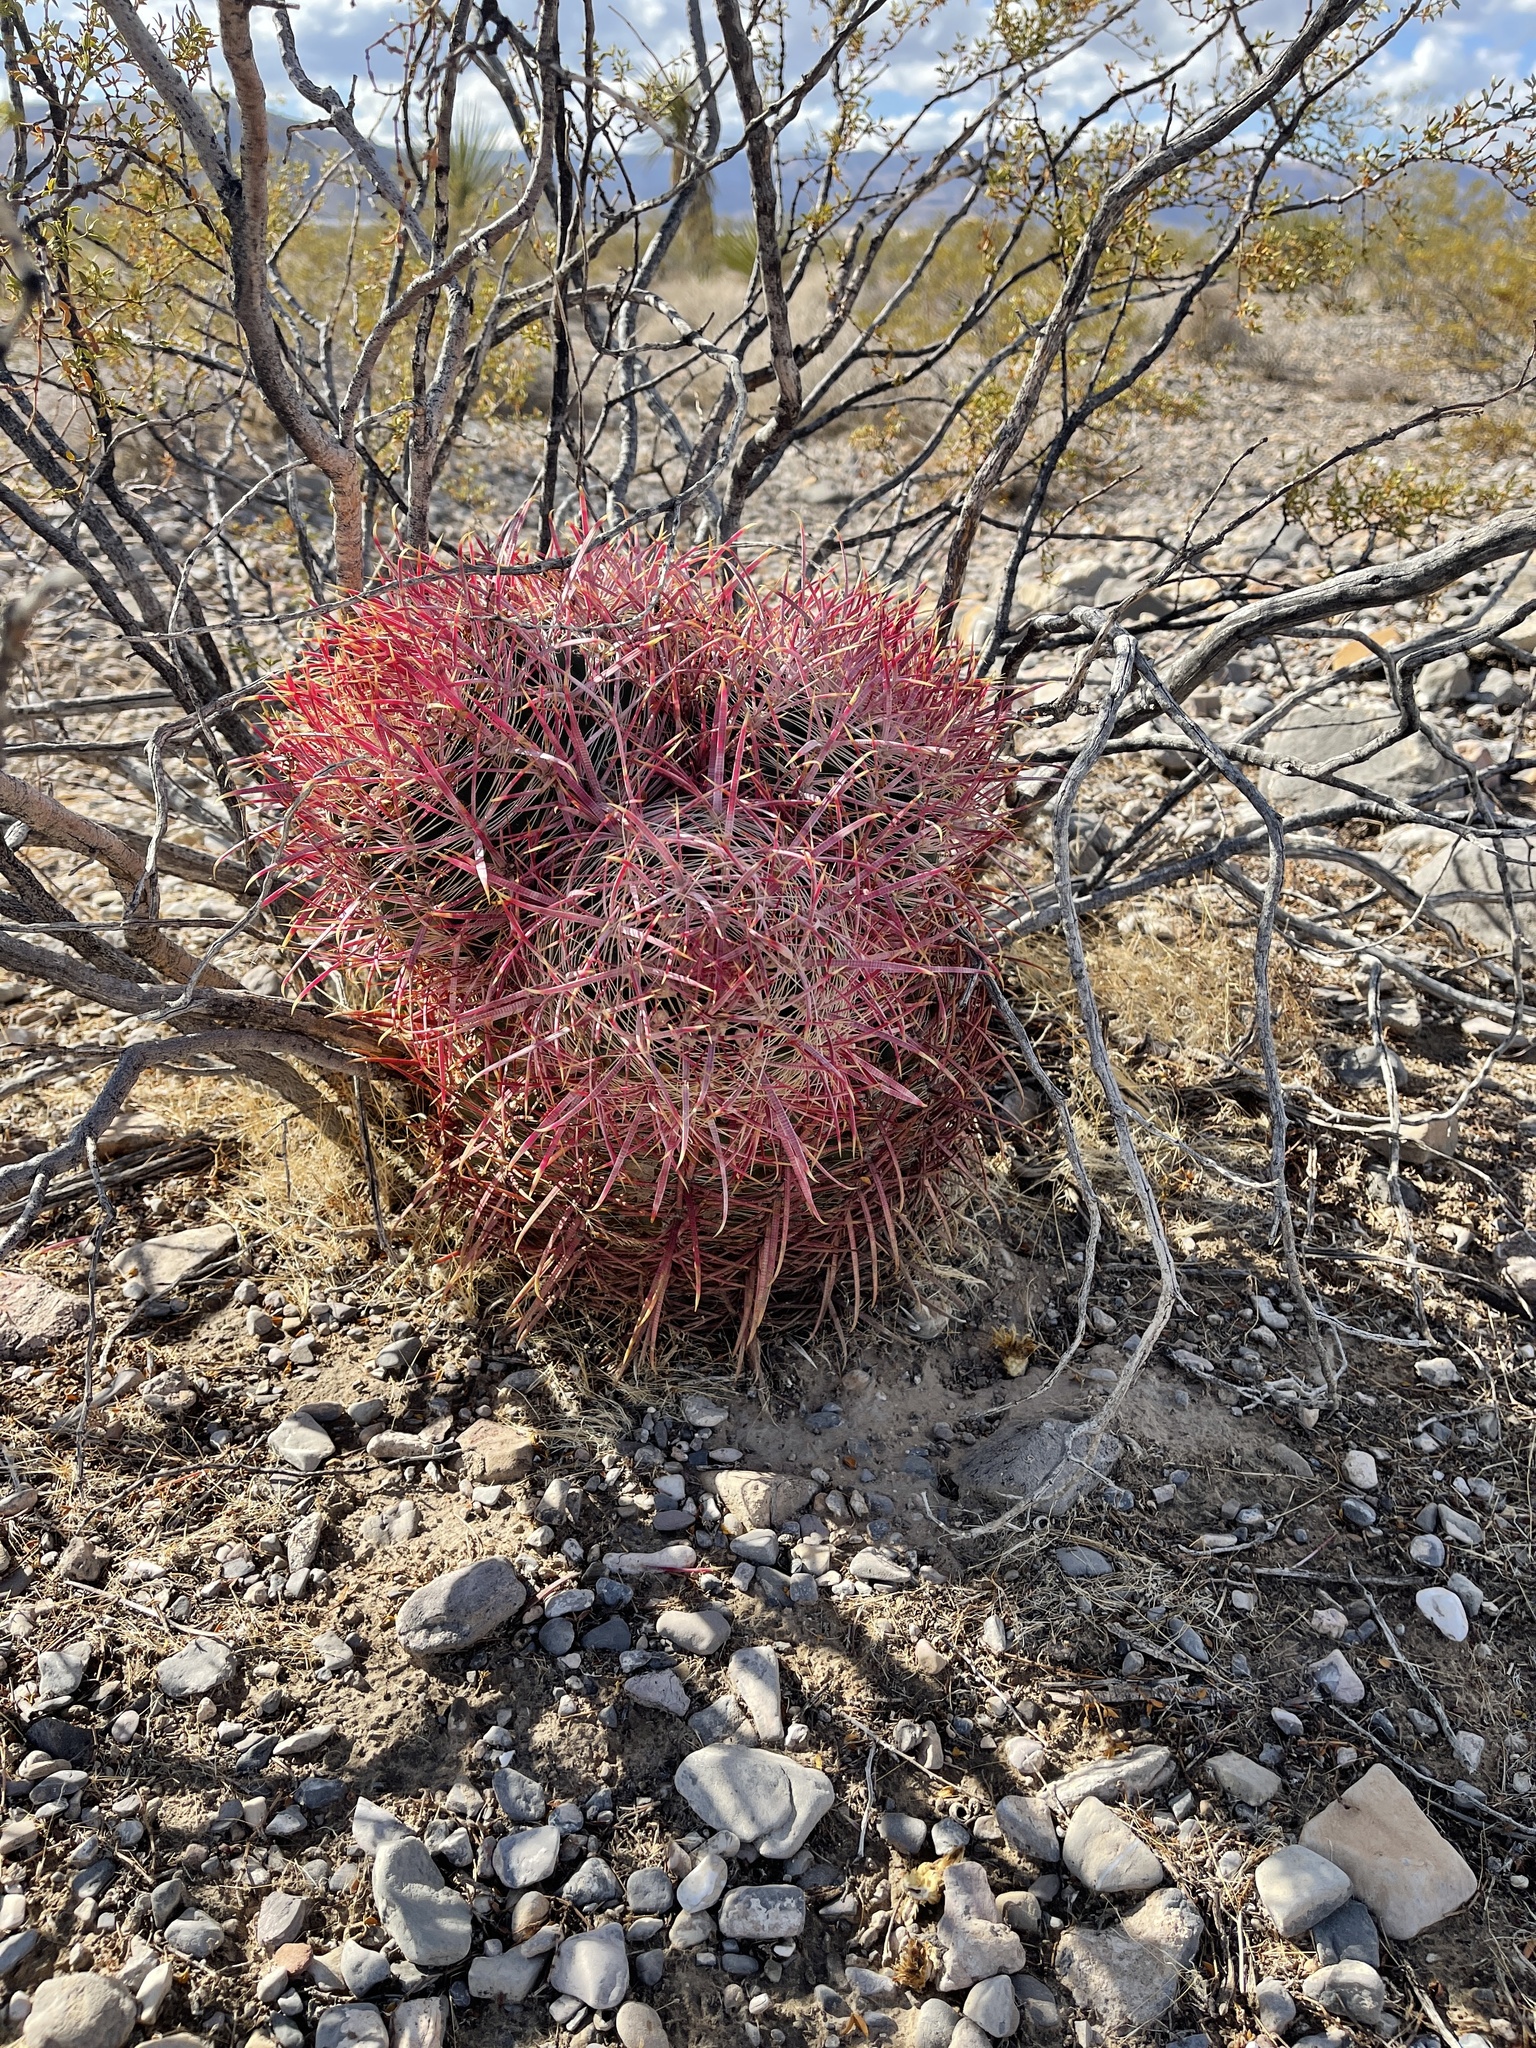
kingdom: Plantae
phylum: Tracheophyta
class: Magnoliopsida
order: Caryophyllales
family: Cactaceae
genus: Ferocactus
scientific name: Ferocactus cylindraceus
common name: California barrel cactus
